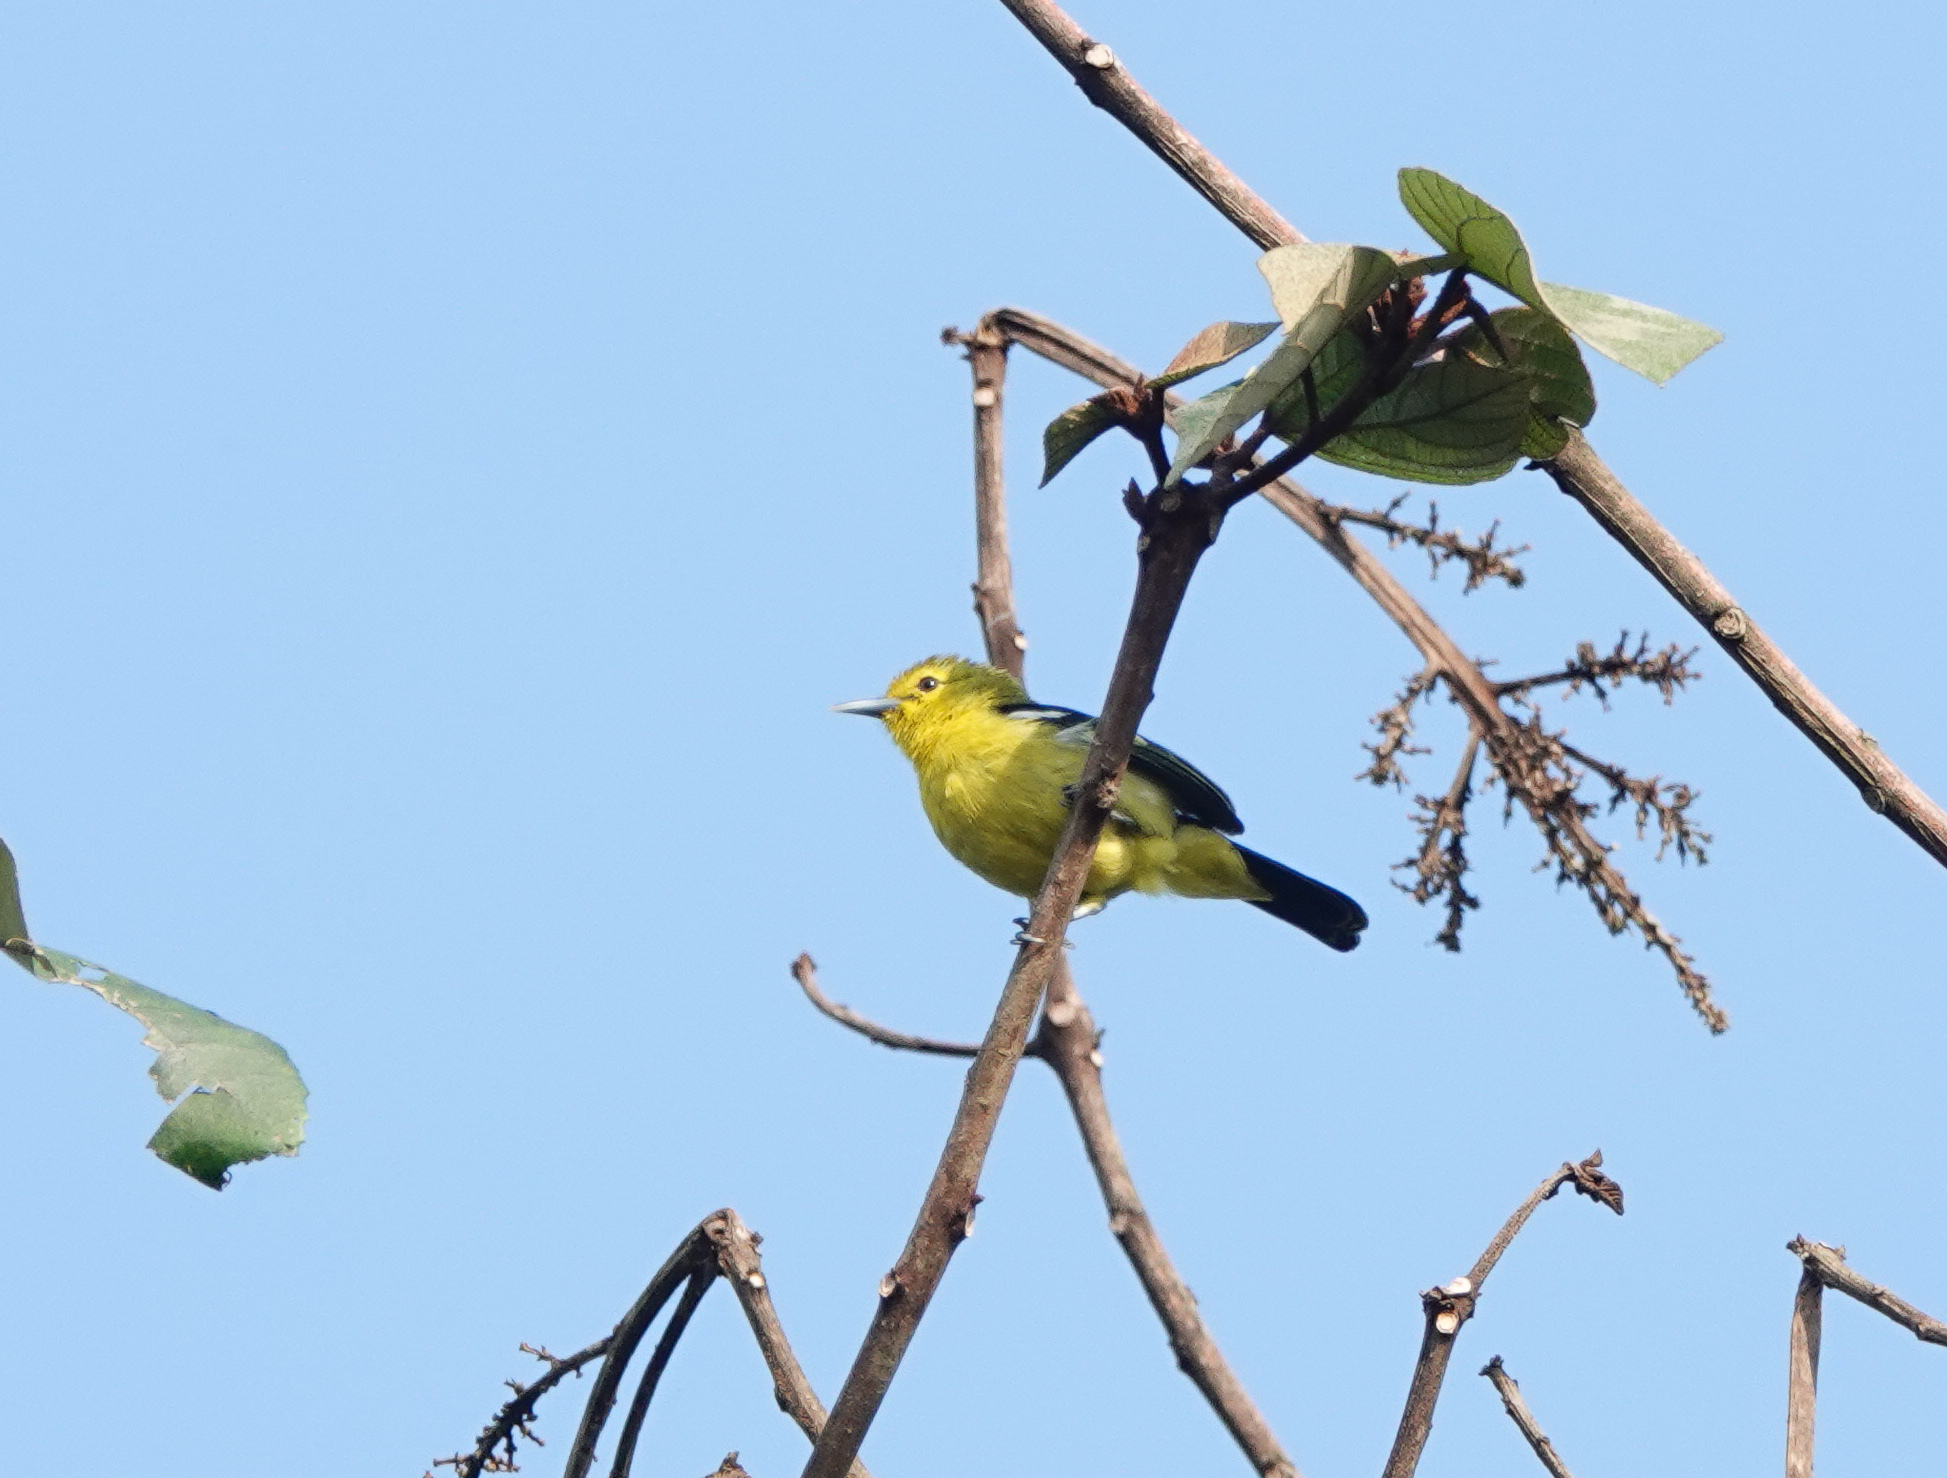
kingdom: Animalia
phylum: Chordata
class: Aves
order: Passeriformes
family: Aegithinidae
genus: Aegithina
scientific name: Aegithina tiphia
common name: Common iora
